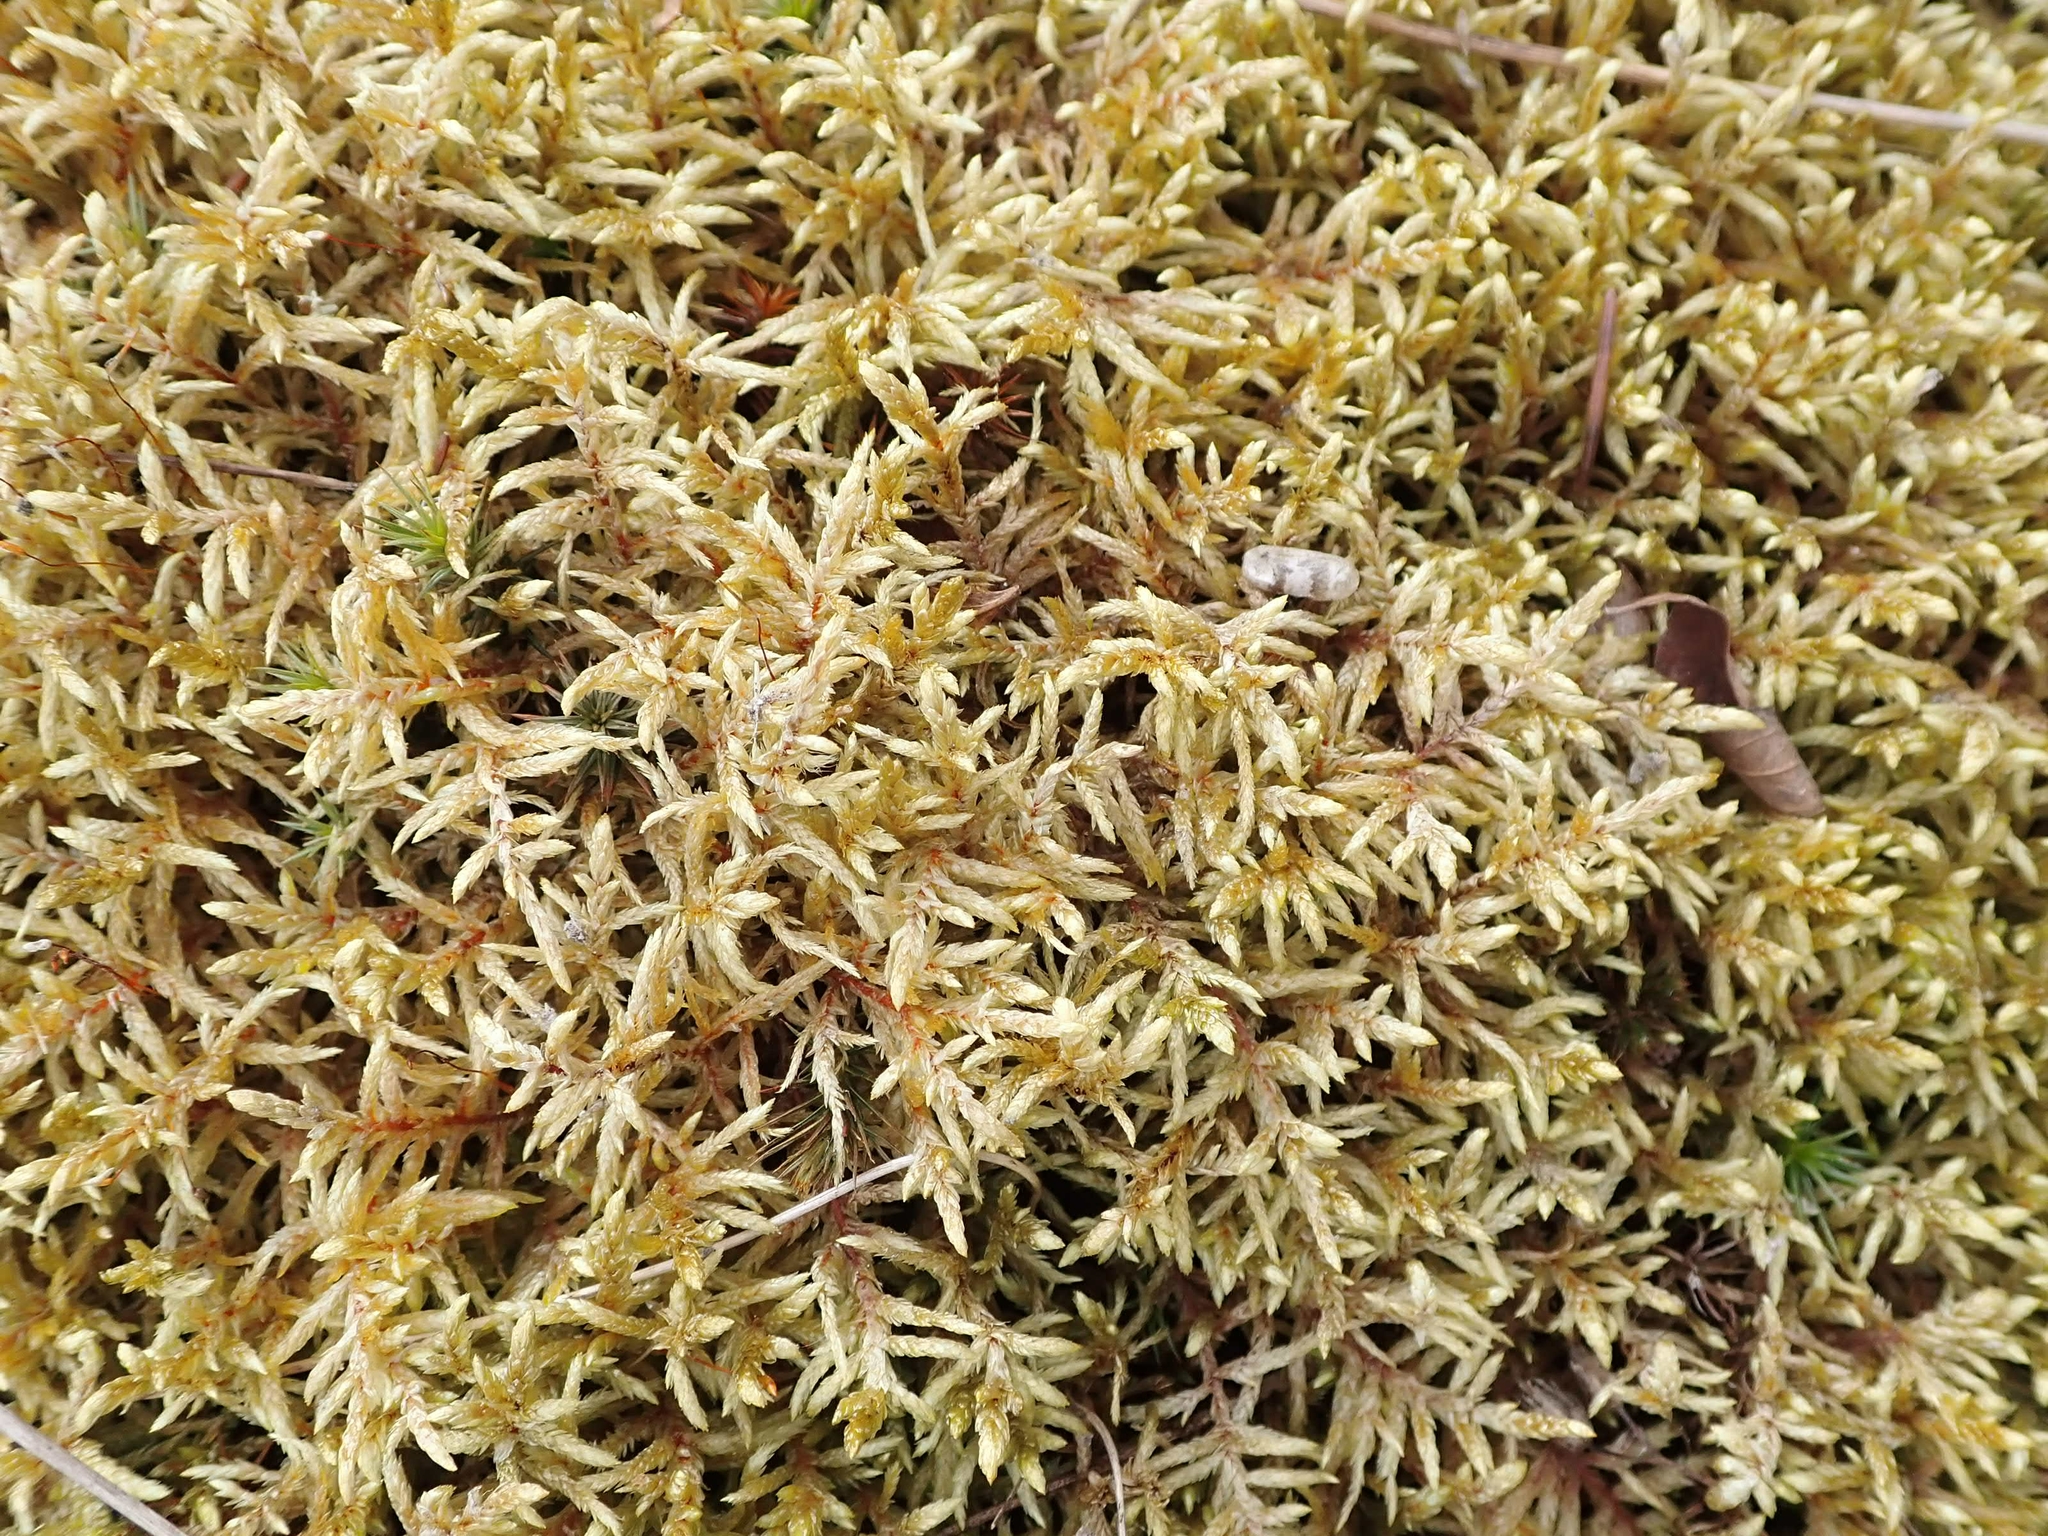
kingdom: Plantae
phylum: Bryophyta
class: Bryopsida
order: Hypnales
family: Hylocomiaceae
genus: Pleurozium
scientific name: Pleurozium schreberi
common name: Red-stemmed feather moss
